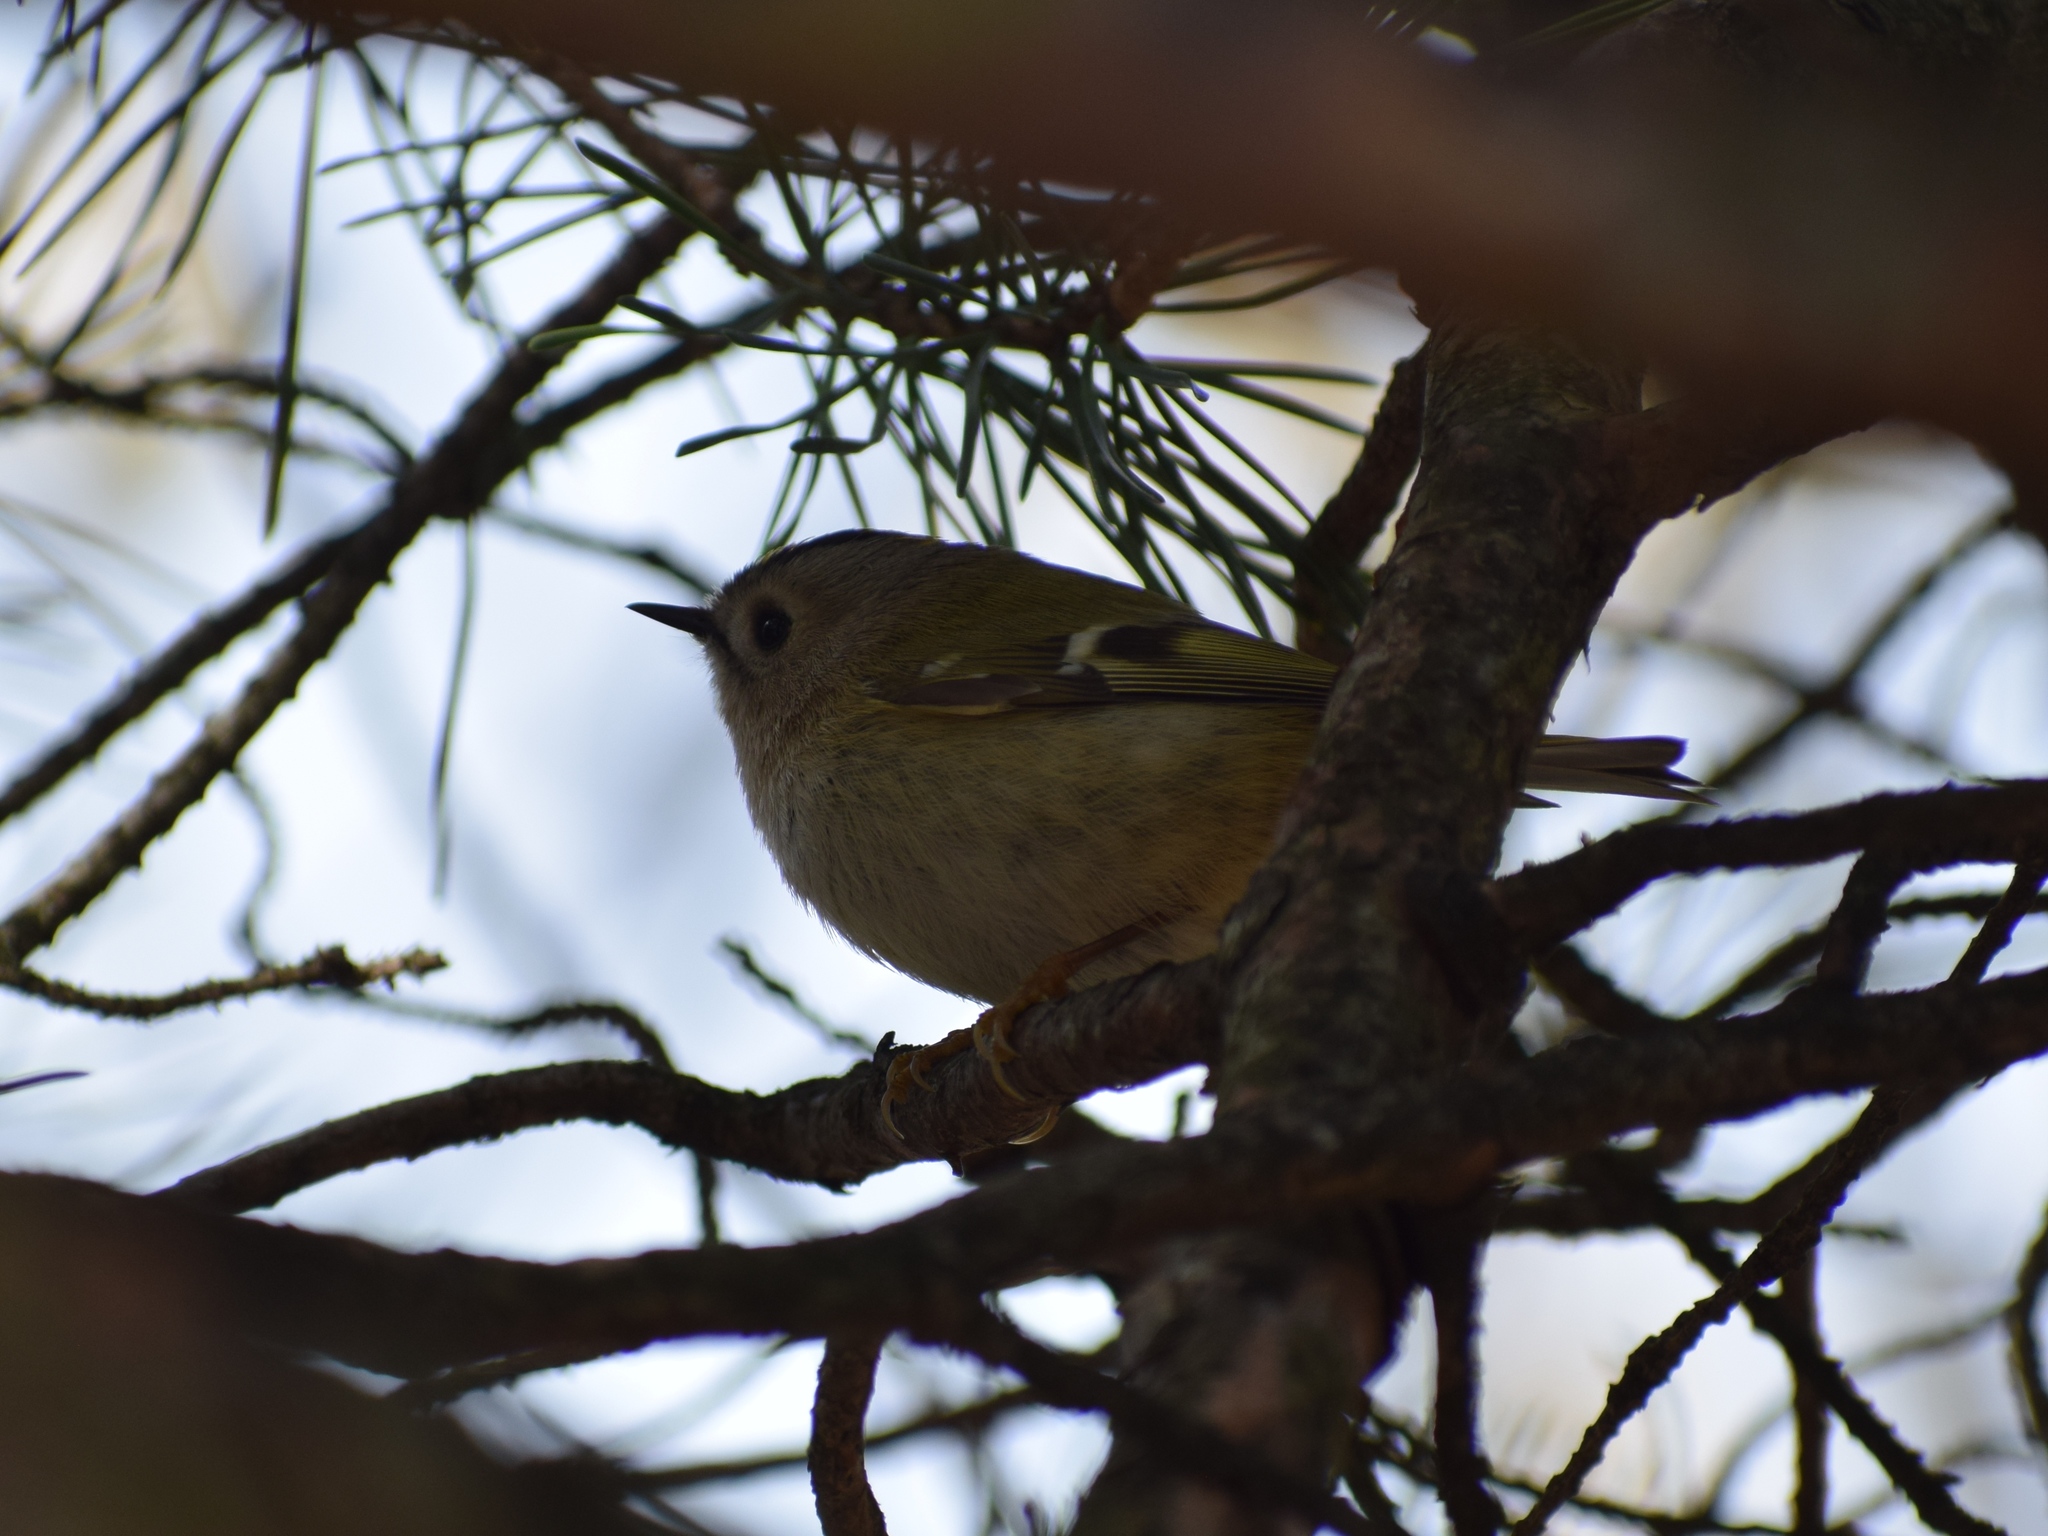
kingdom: Animalia
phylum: Chordata
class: Aves
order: Passeriformes
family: Regulidae
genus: Regulus
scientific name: Regulus regulus
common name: Goldcrest
